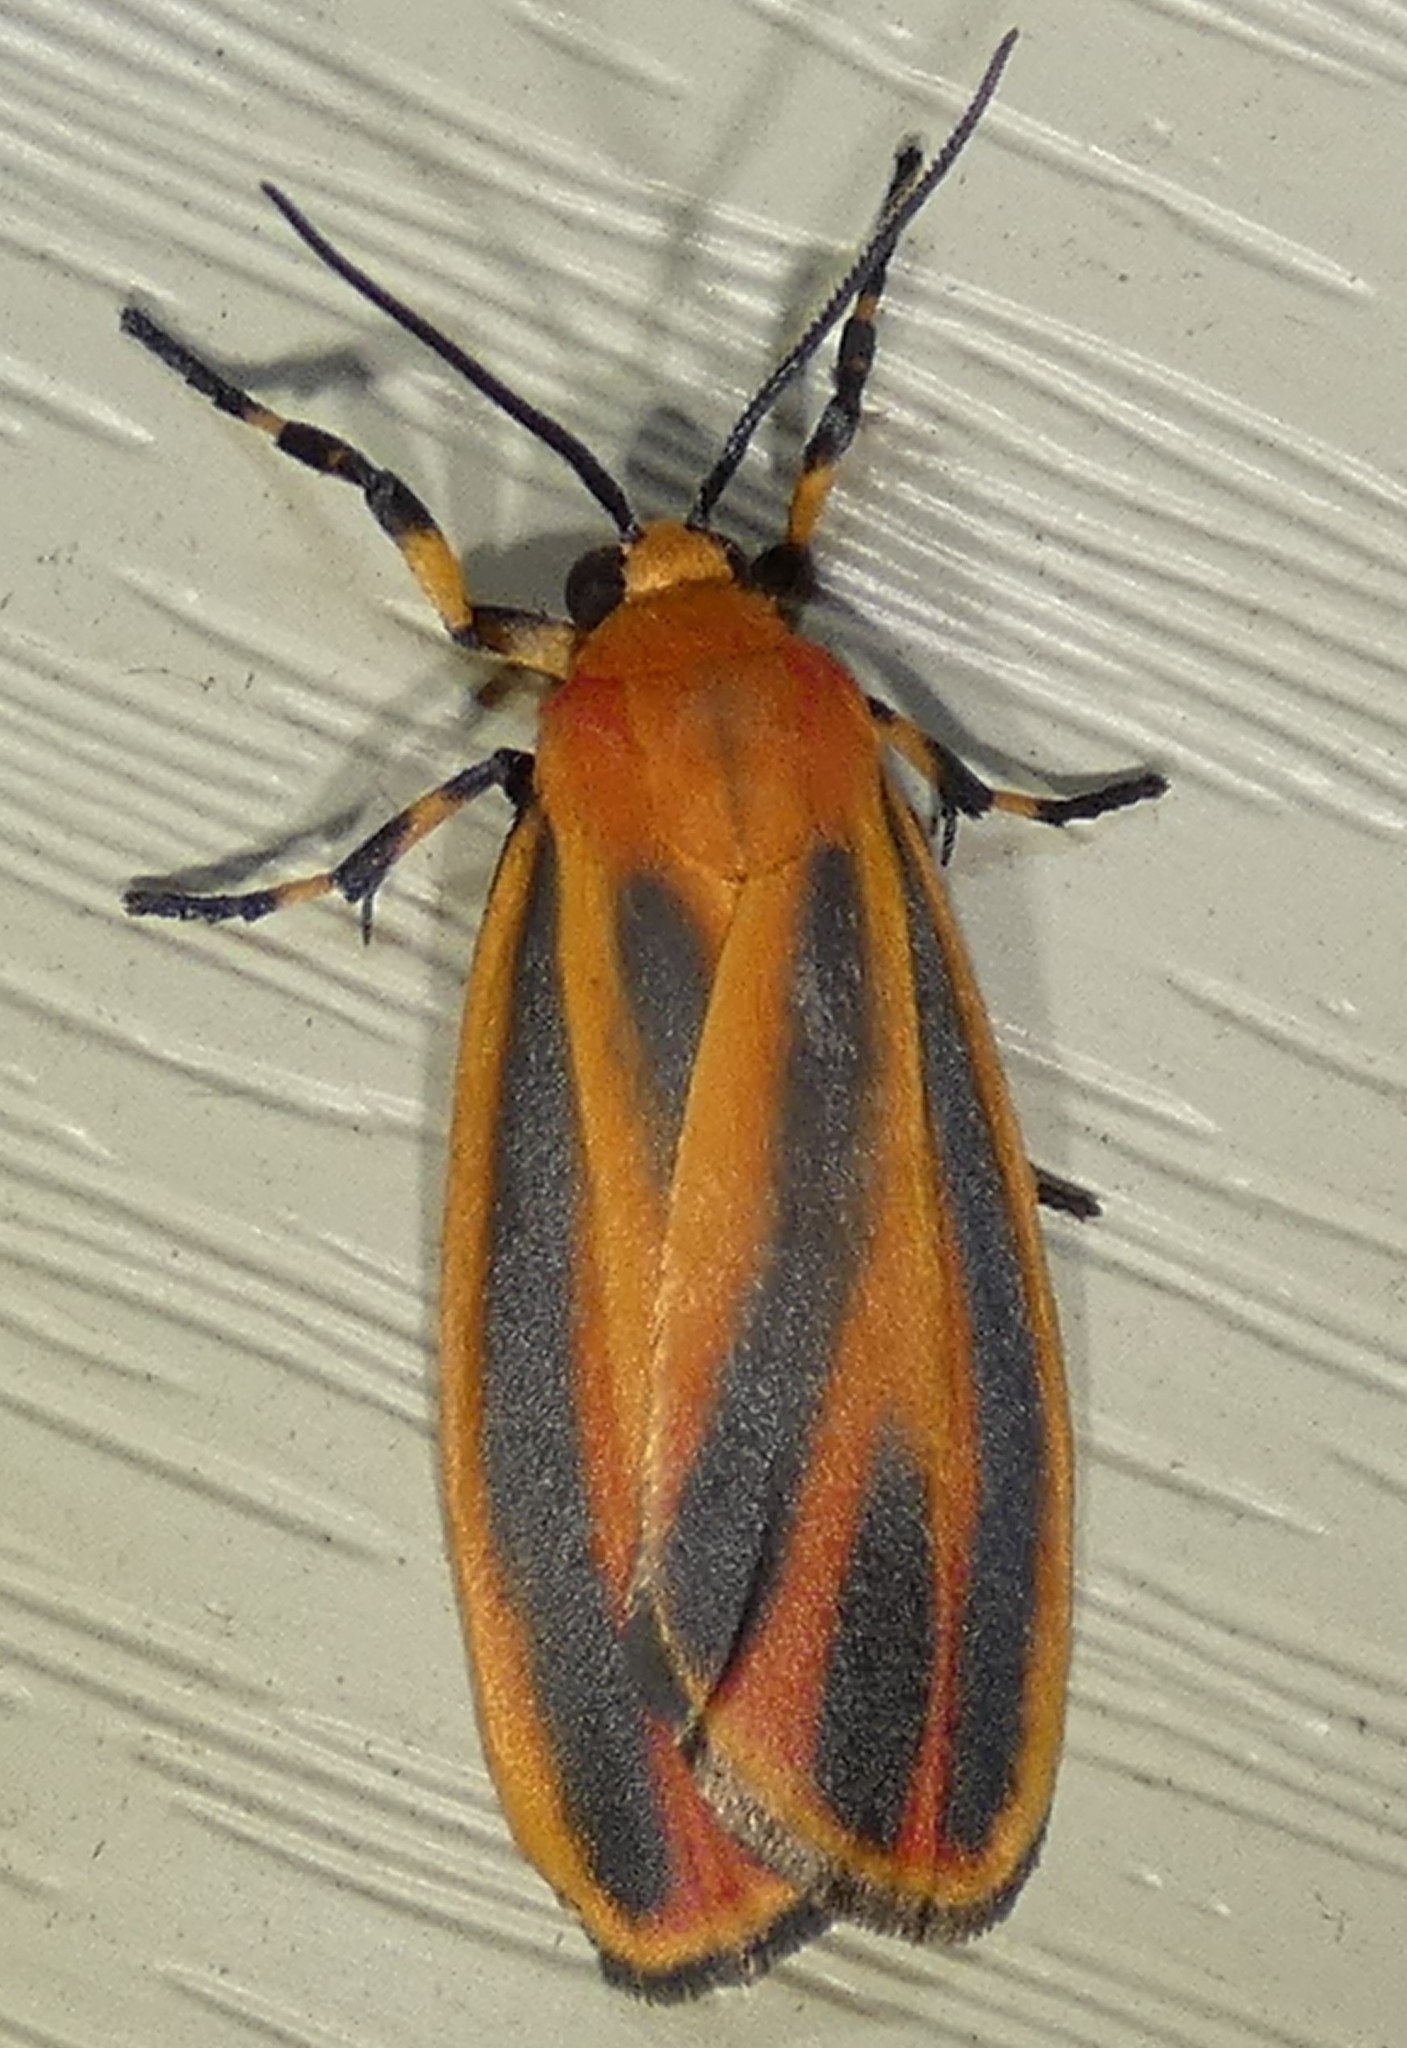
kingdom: Animalia
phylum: Arthropoda
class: Insecta
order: Lepidoptera
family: Erebidae
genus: Hypoprepia
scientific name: Hypoprepia miniata
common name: Scarlet-winged lichen moth
